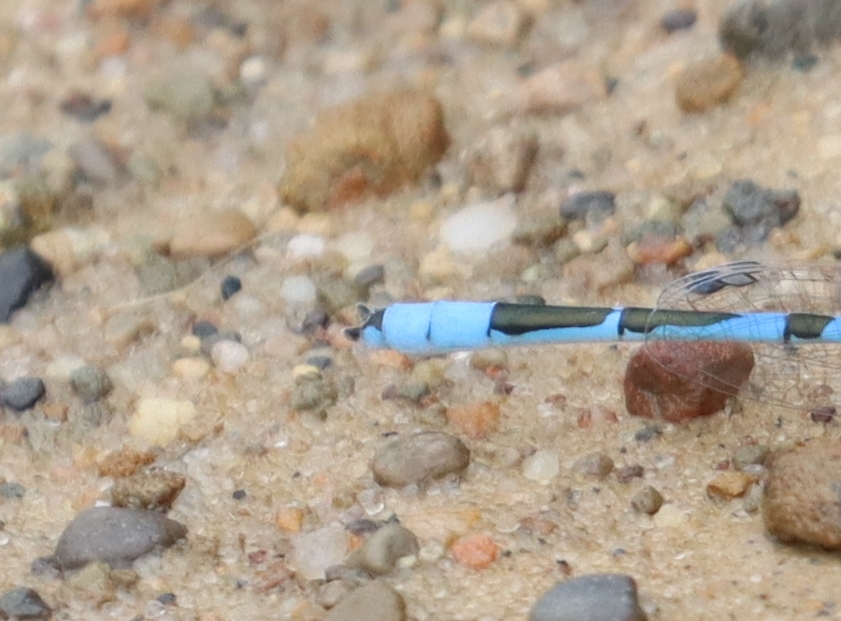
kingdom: Animalia
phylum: Arthropoda
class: Insecta
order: Odonata
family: Coenagrionidae
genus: Enallagma
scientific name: Enallagma civile
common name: Damselfly
